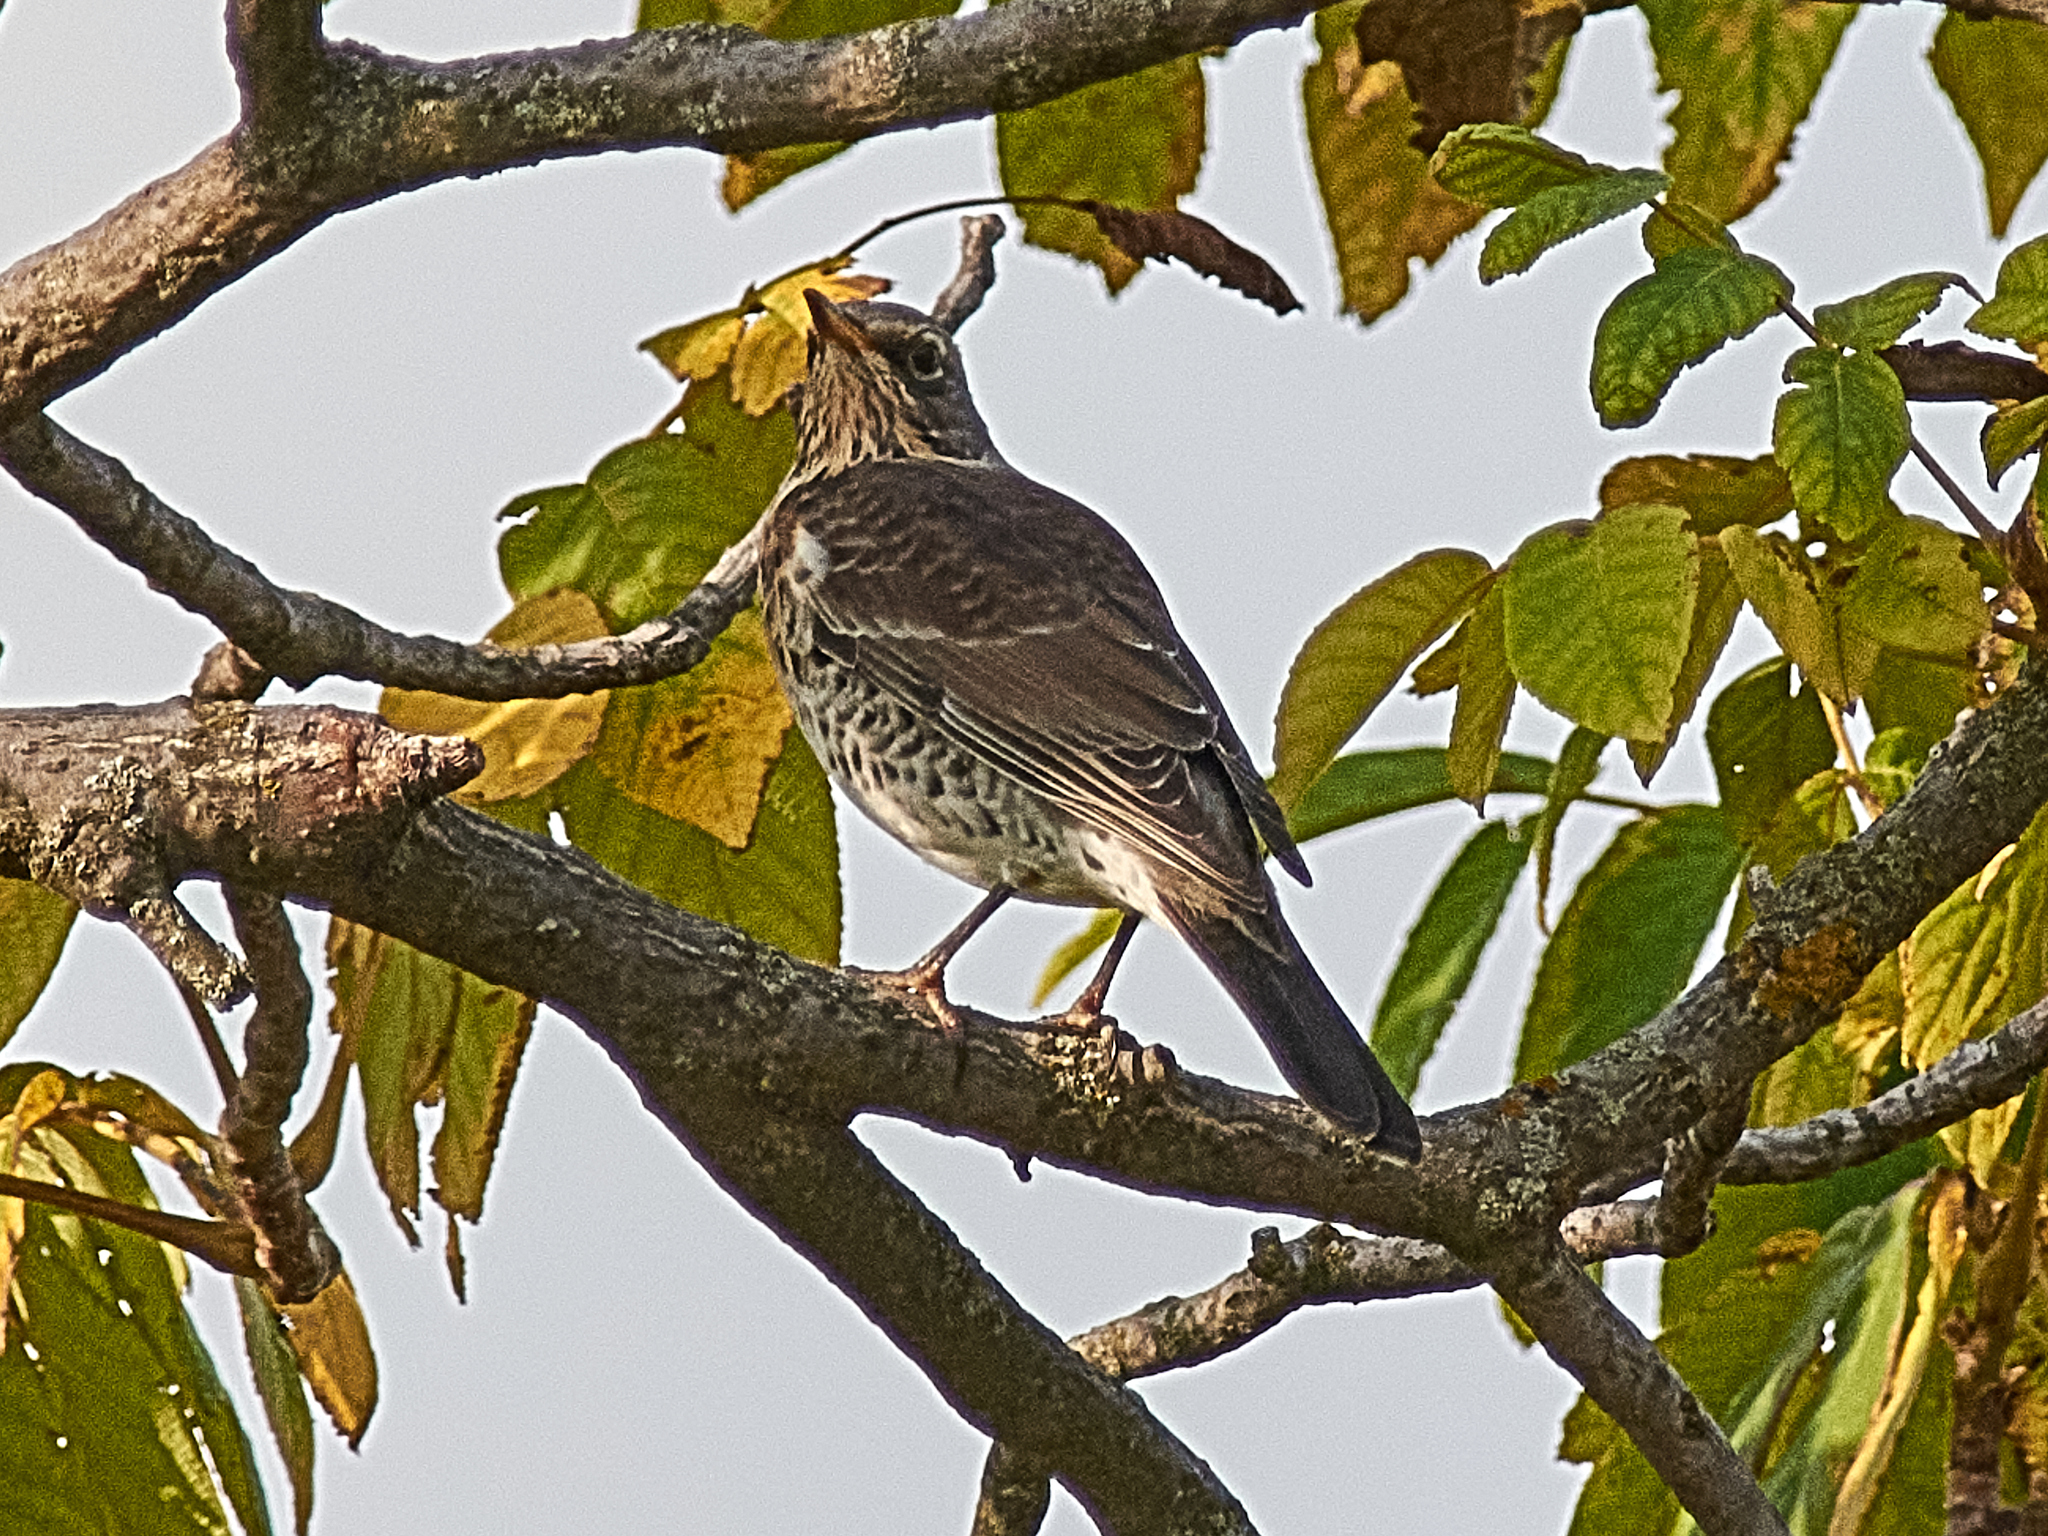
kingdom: Animalia
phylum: Chordata
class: Aves
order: Passeriformes
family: Turdidae
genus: Turdus
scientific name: Turdus pilaris
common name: Fieldfare
